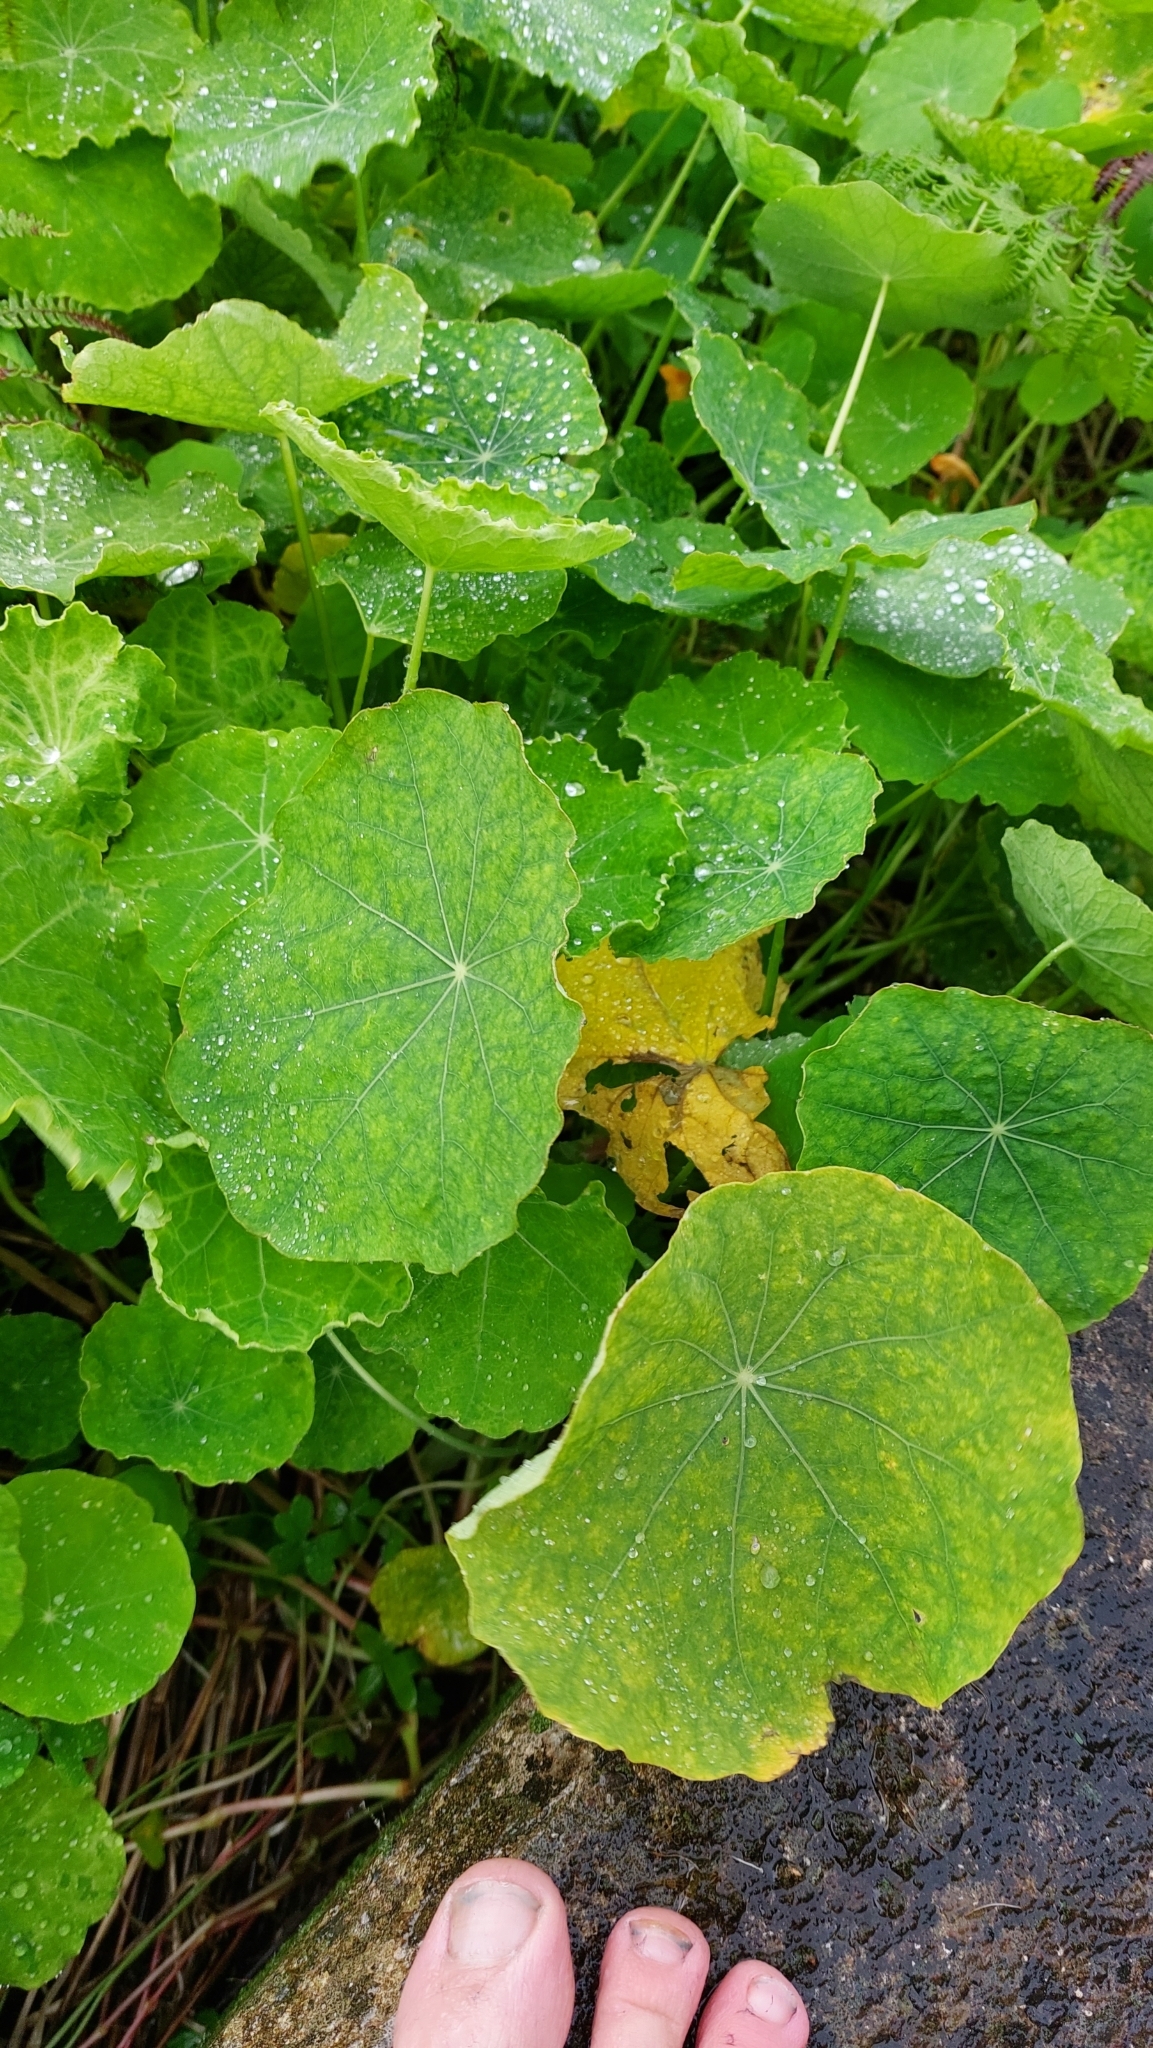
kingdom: Plantae
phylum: Tracheophyta
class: Magnoliopsida
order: Brassicales
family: Tropaeolaceae
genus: Tropaeolum
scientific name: Tropaeolum majus
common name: Nasturtium
